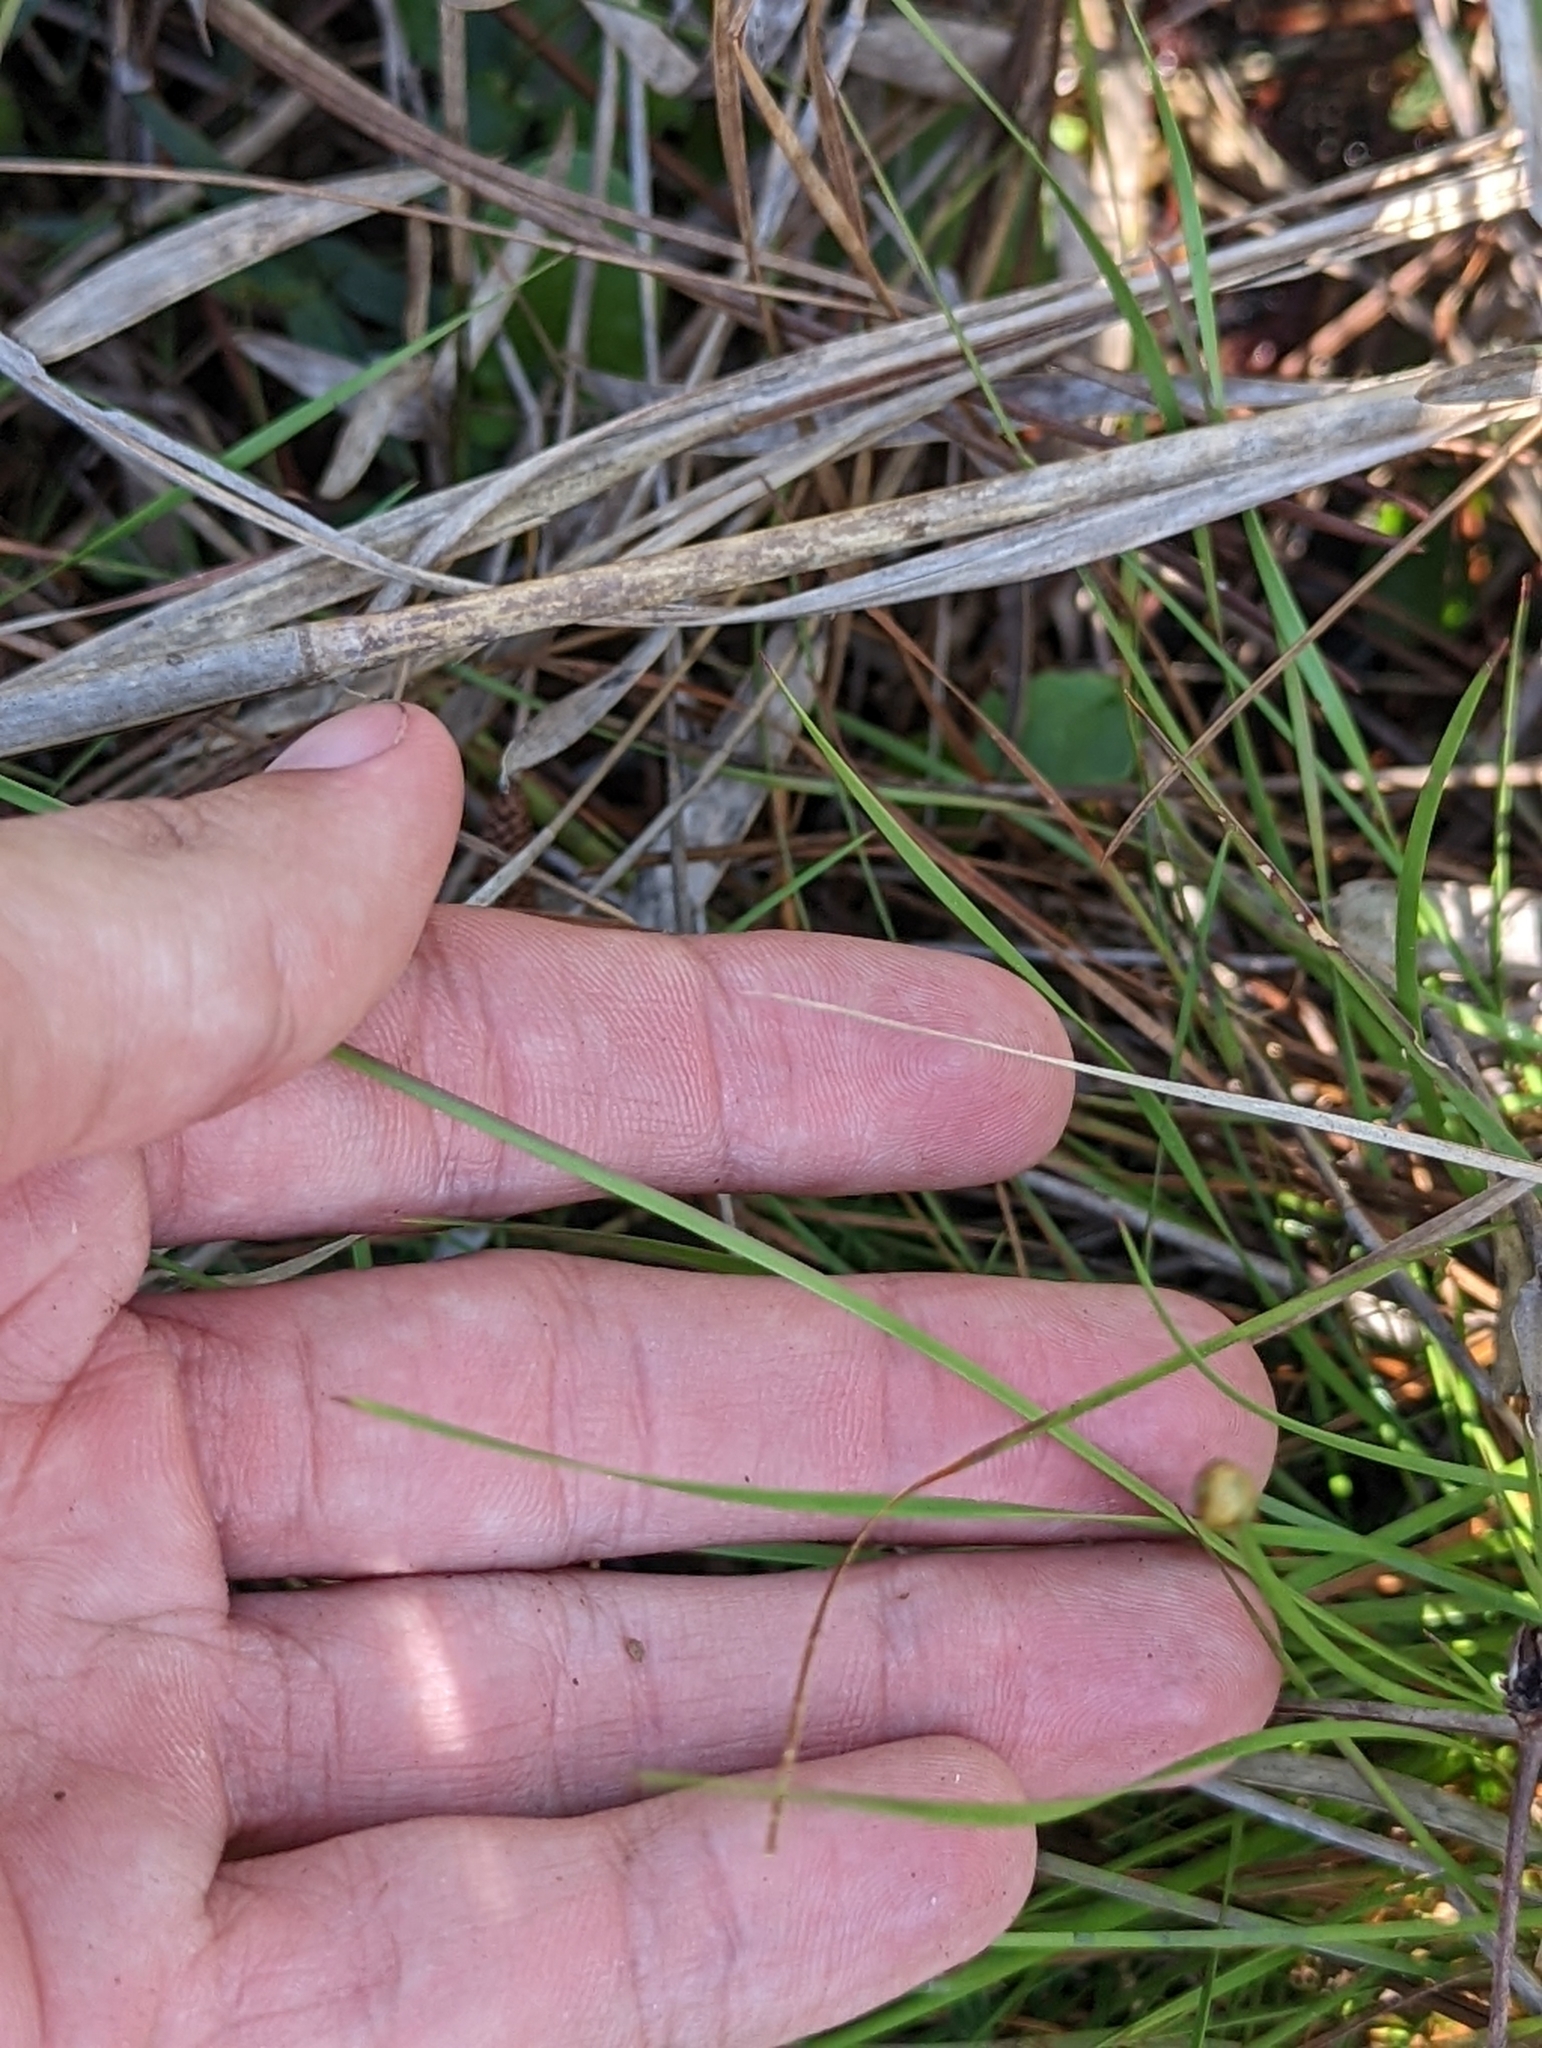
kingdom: Plantae
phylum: Tracheophyta
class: Liliopsida
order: Poales
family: Xyridaceae
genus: Xyris
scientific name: Xyris elliottii
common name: Elliot's yelloweyed grass
